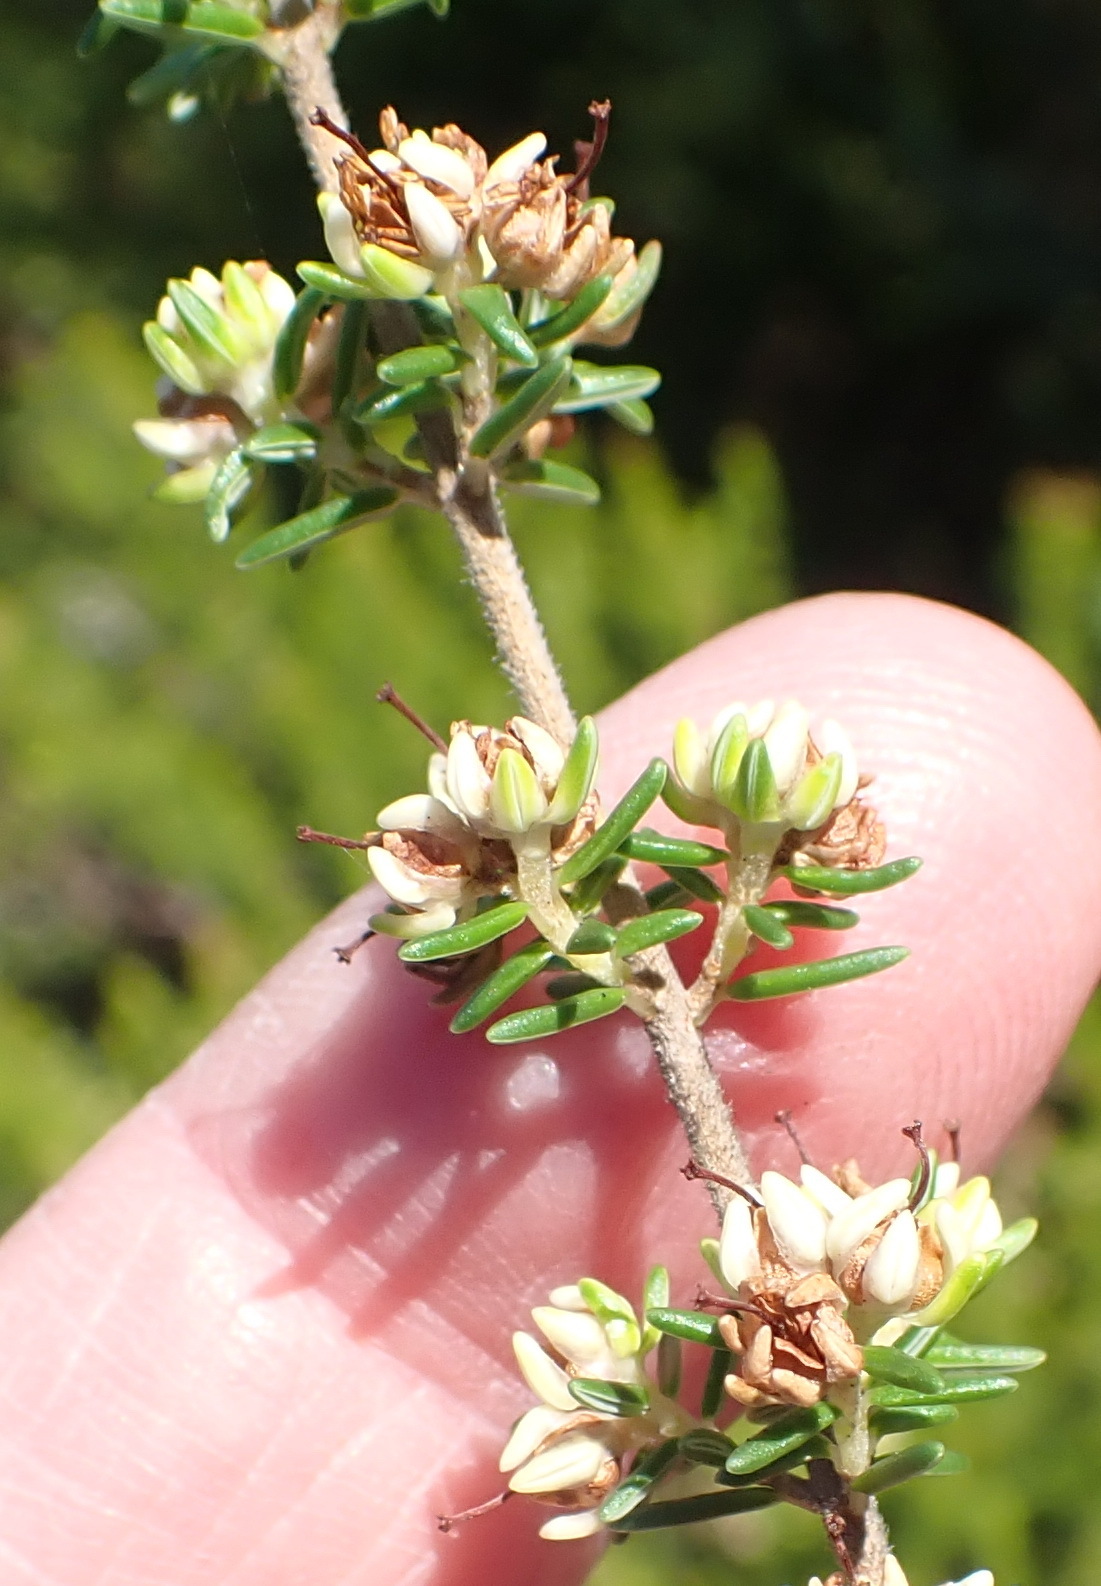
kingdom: Plantae
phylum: Tracheophyta
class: Magnoliopsida
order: Ericales
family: Ericaceae
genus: Erica
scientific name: Erica glumiflora
